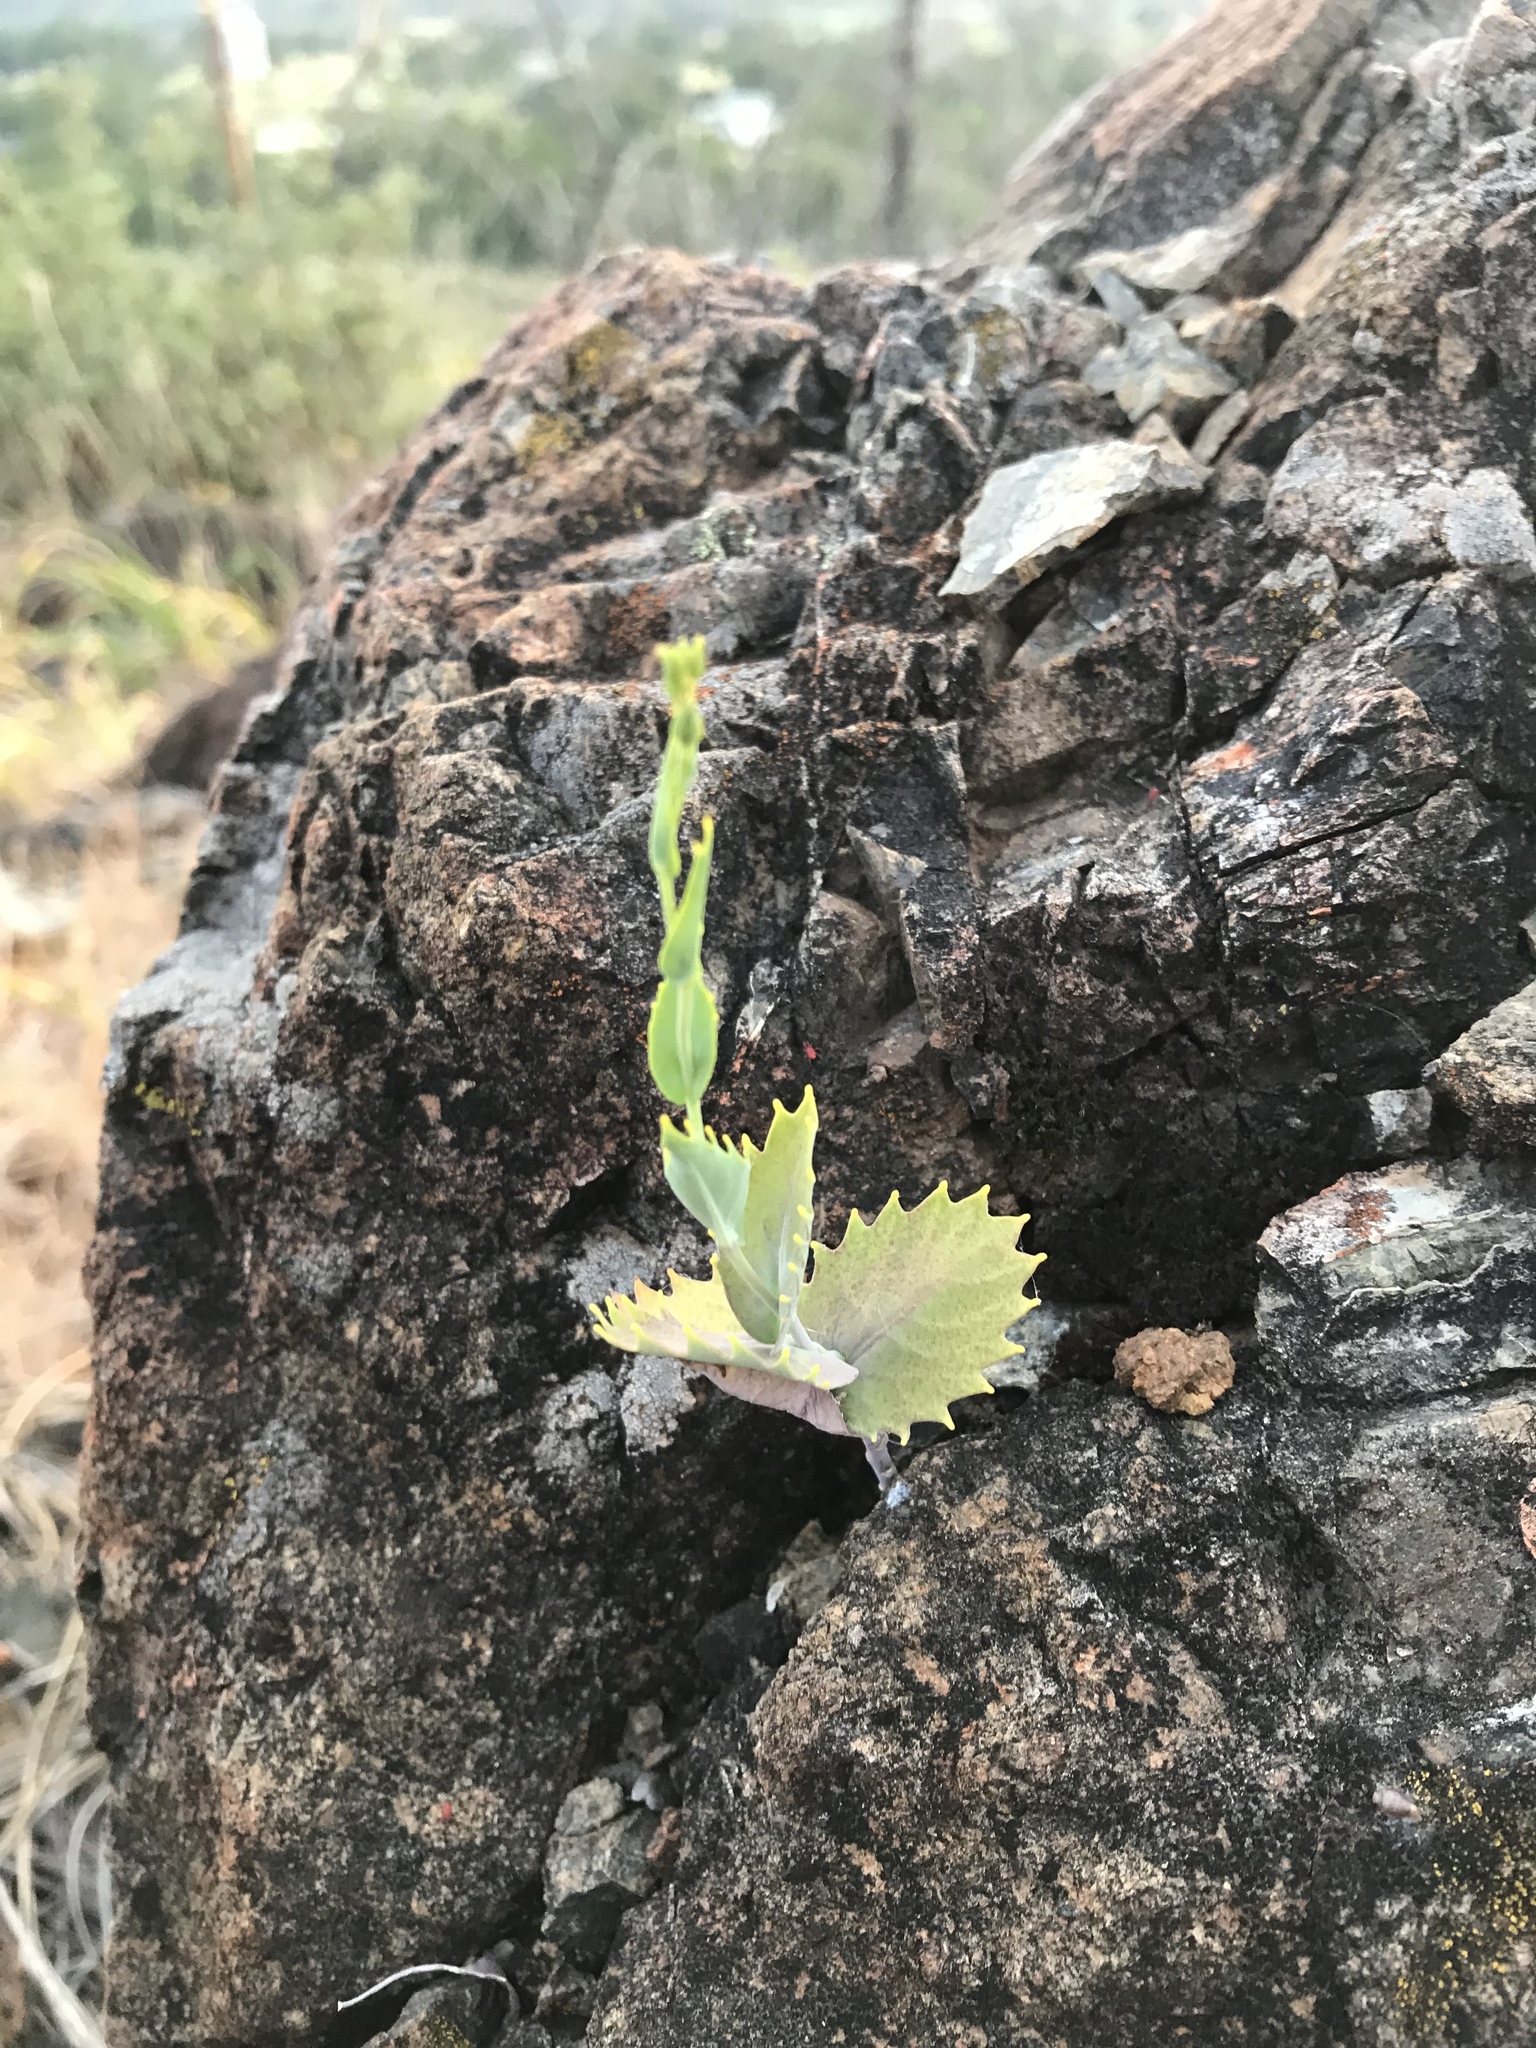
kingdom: Plantae
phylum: Tracheophyta
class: Magnoliopsida
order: Brassicales
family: Brassicaceae
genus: Streptanthus
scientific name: Streptanthus hesperidis
